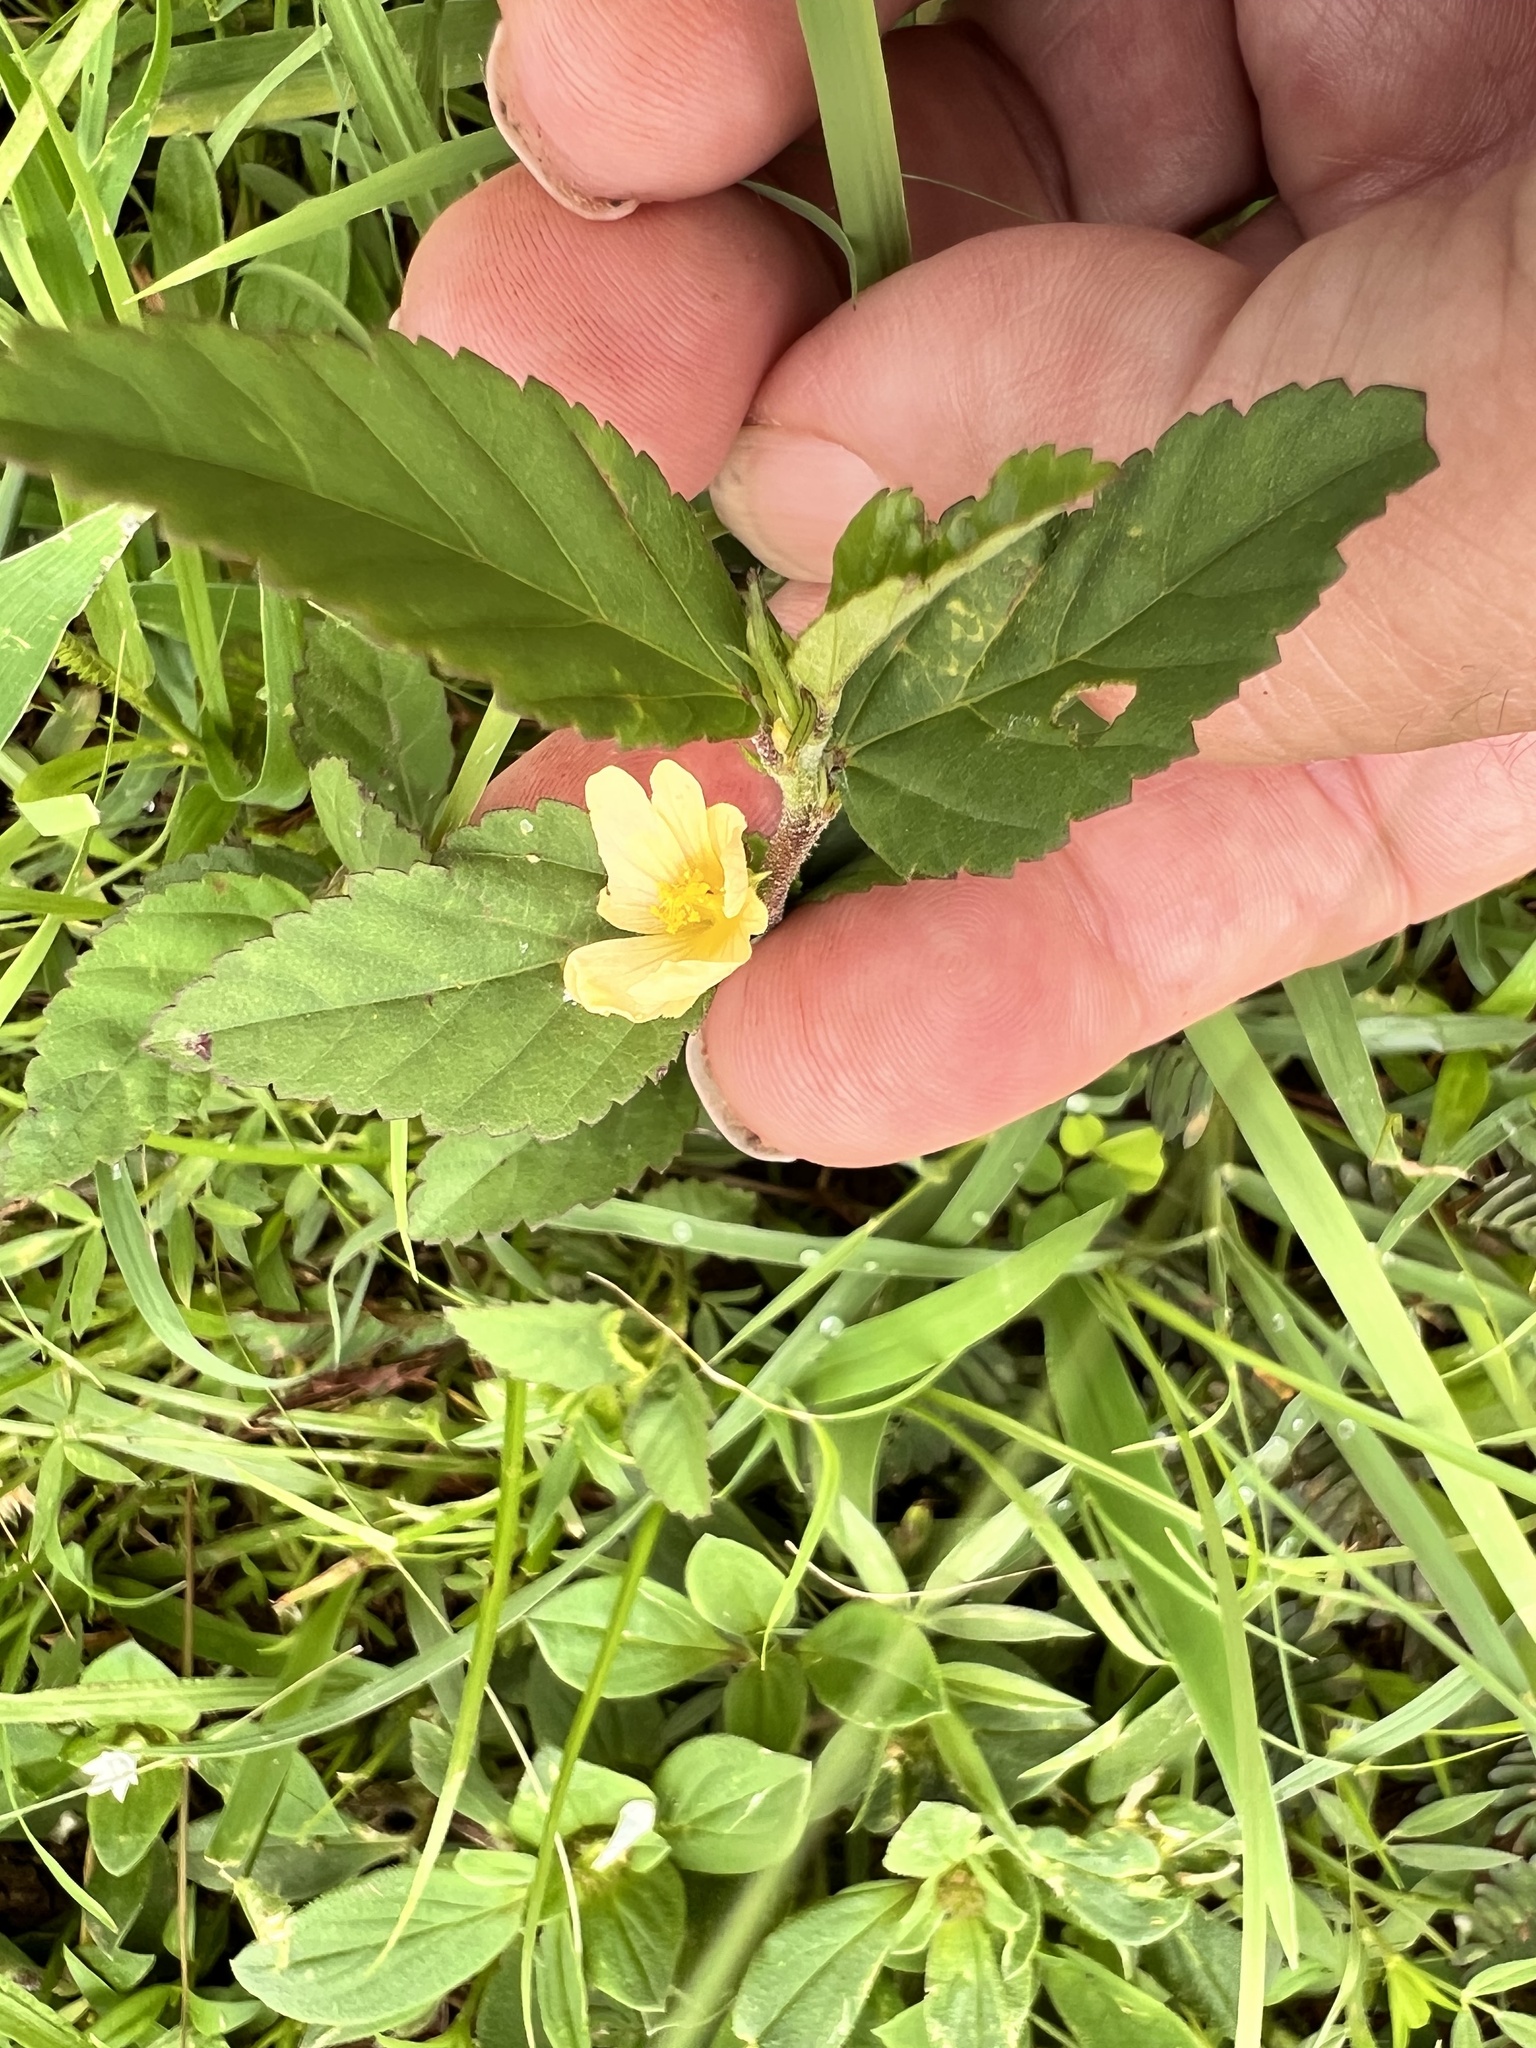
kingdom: Plantae
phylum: Tracheophyta
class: Magnoliopsida
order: Malvales
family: Malvaceae
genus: Sida
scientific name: Sida acuta
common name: Common wireweed
